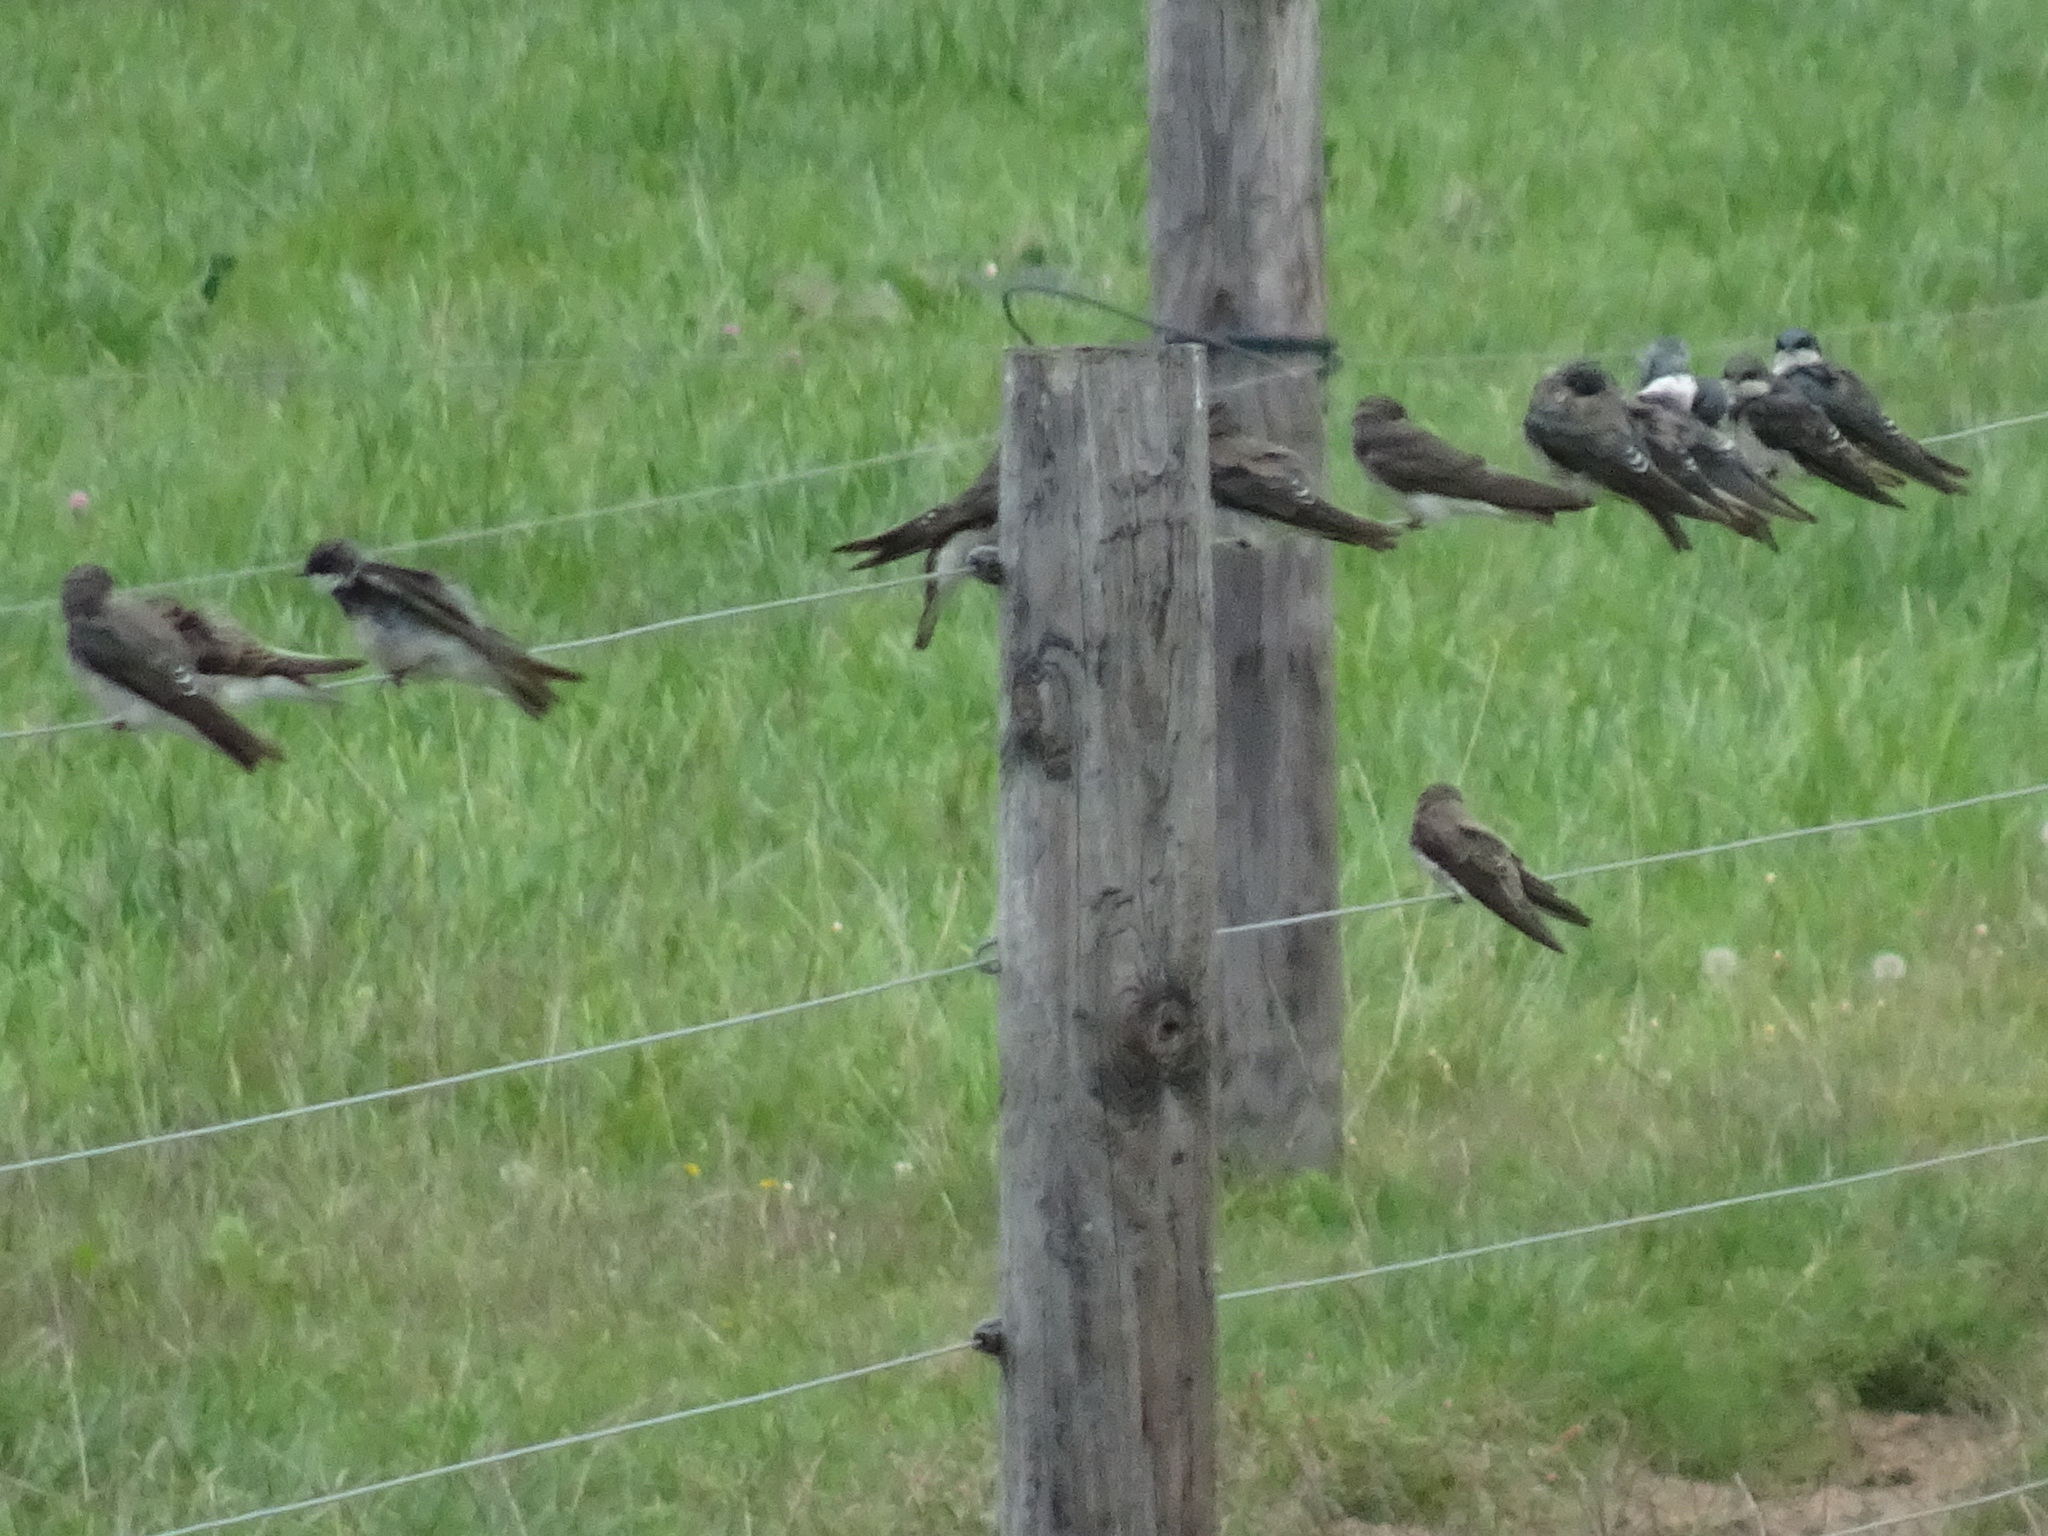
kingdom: Animalia
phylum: Chordata
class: Aves
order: Passeriformes
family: Hirundinidae
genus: Tachycineta
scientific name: Tachycineta bicolor
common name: Tree swallow
